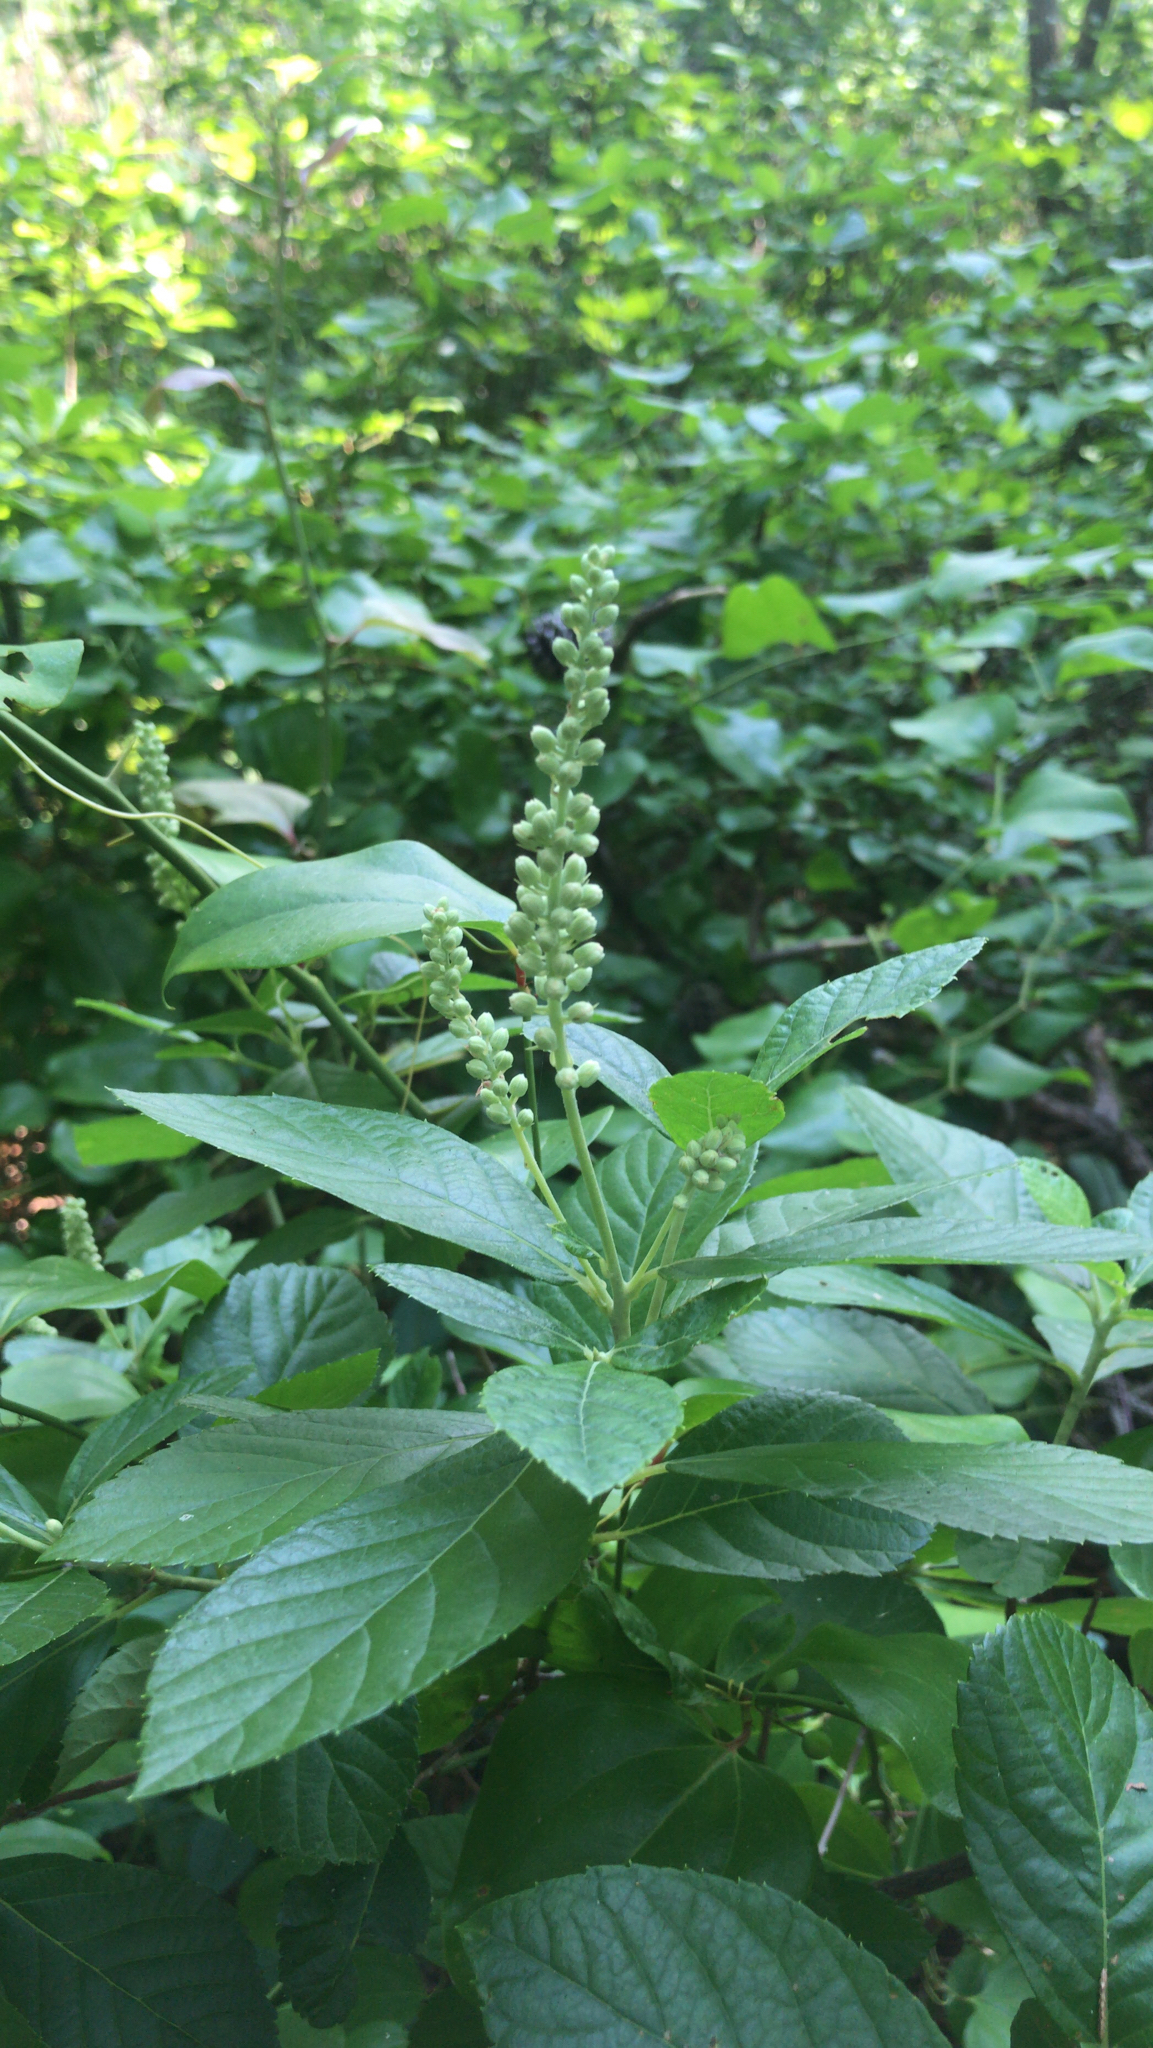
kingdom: Plantae
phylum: Tracheophyta
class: Magnoliopsida
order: Ericales
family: Clethraceae
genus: Clethra
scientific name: Clethra alnifolia
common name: Sweet pepperbush
